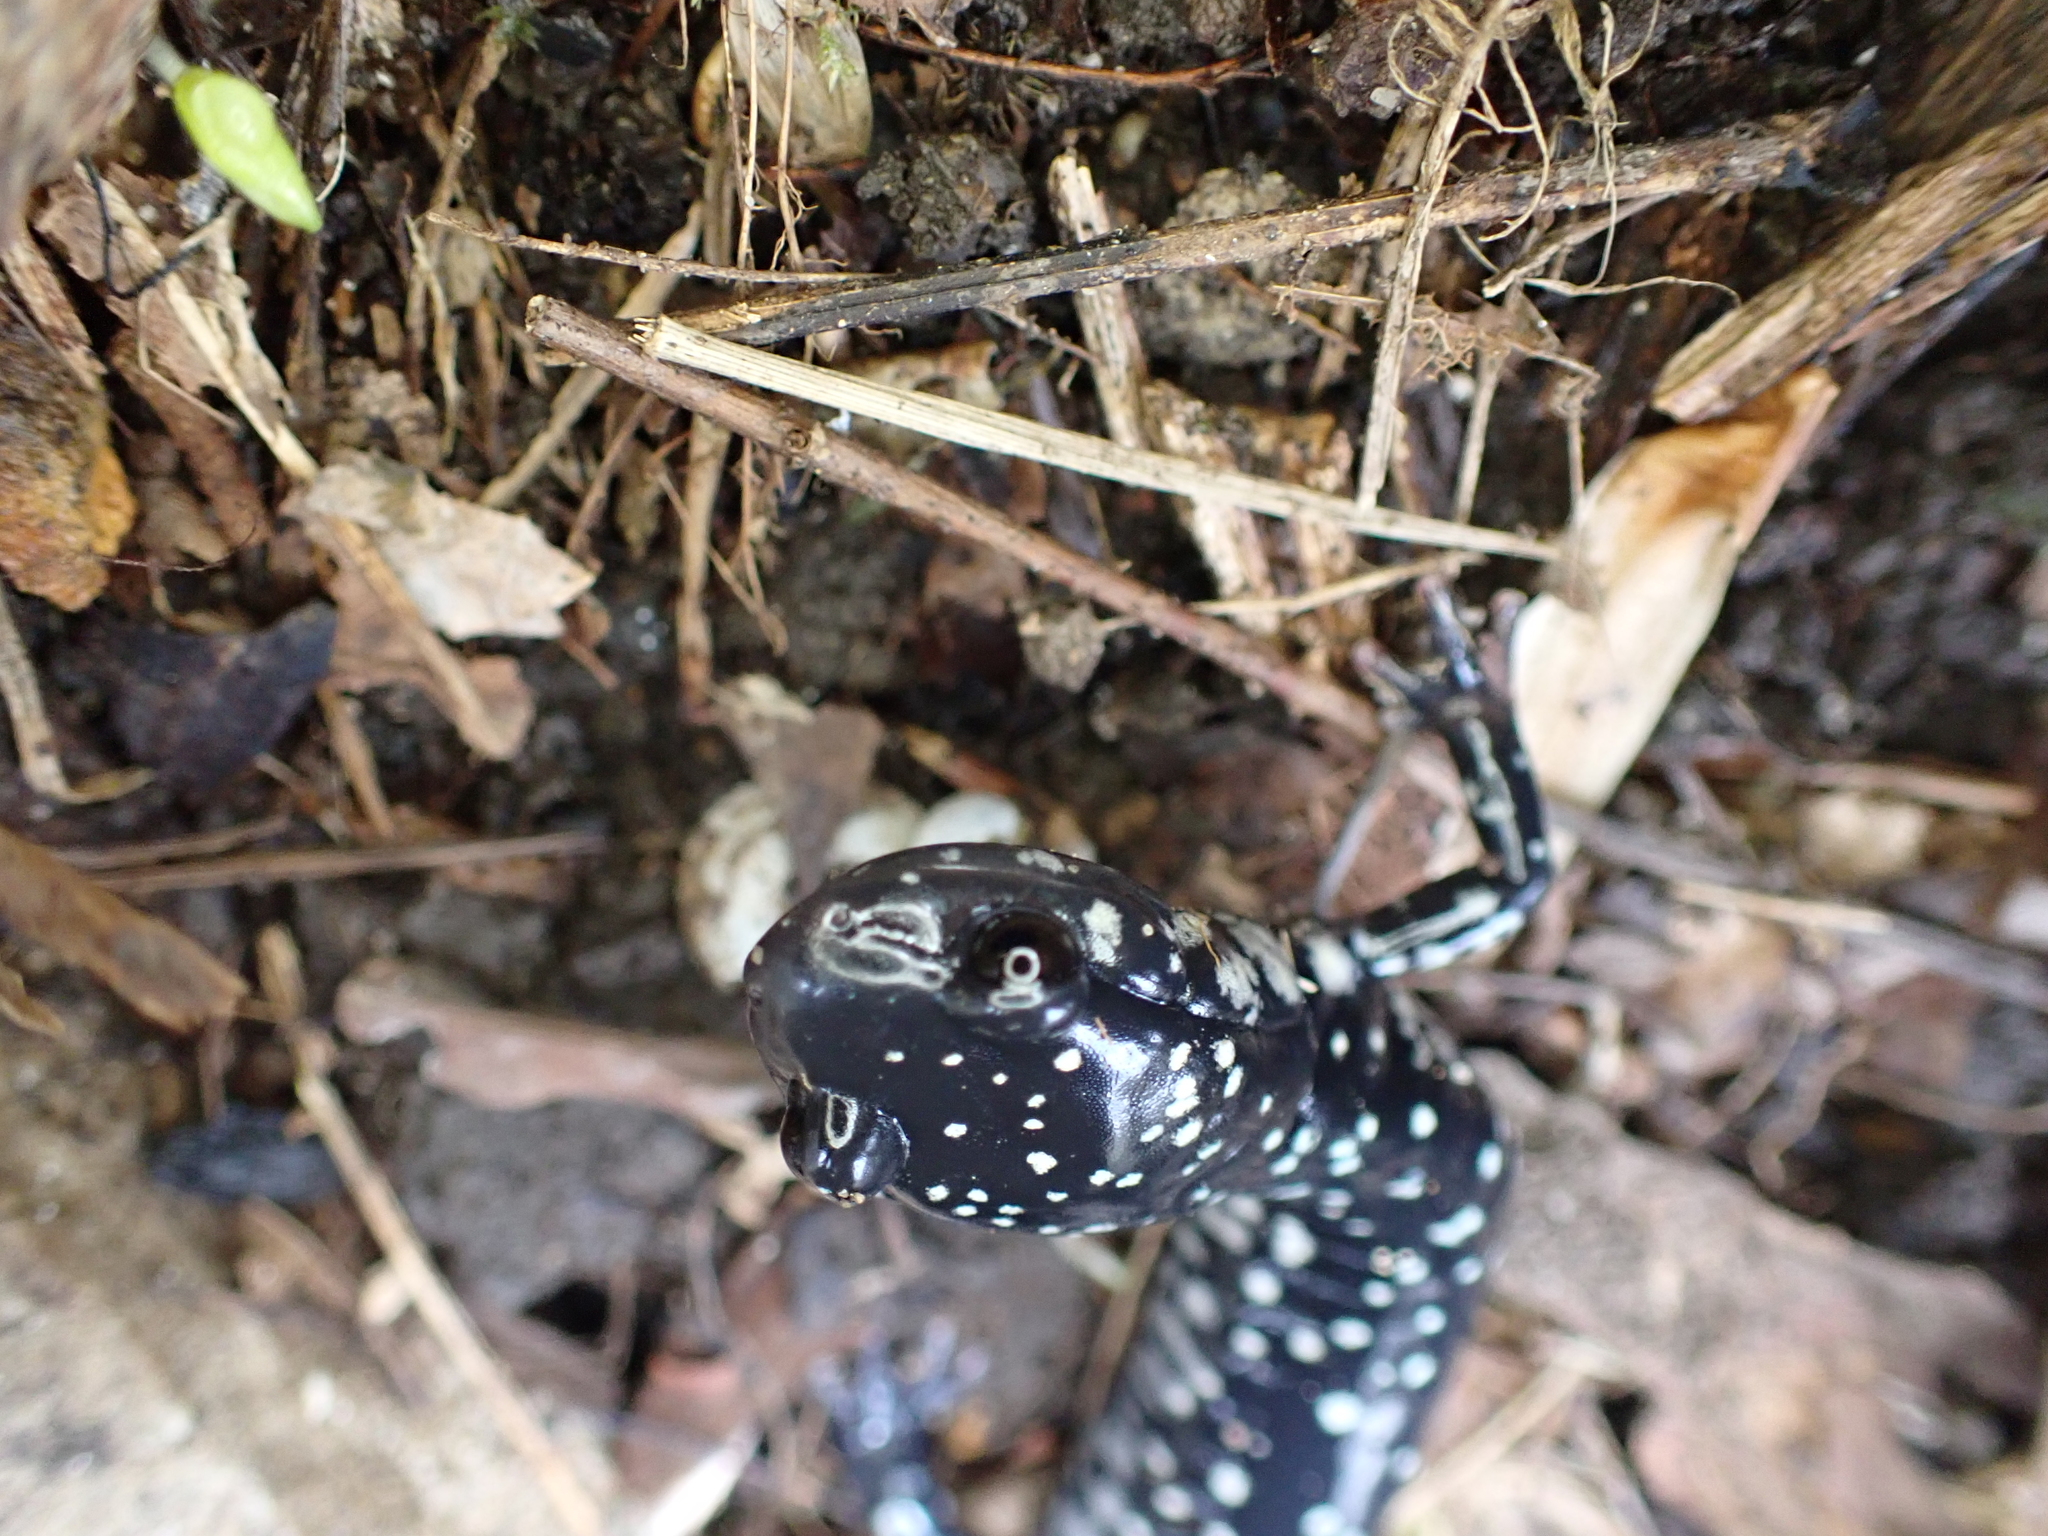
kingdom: Animalia
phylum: Chordata
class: Amphibia
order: Caudata
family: Plethodontidae
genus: Plethodon
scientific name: Plethodon glutinosus
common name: Northern slimy salamander
